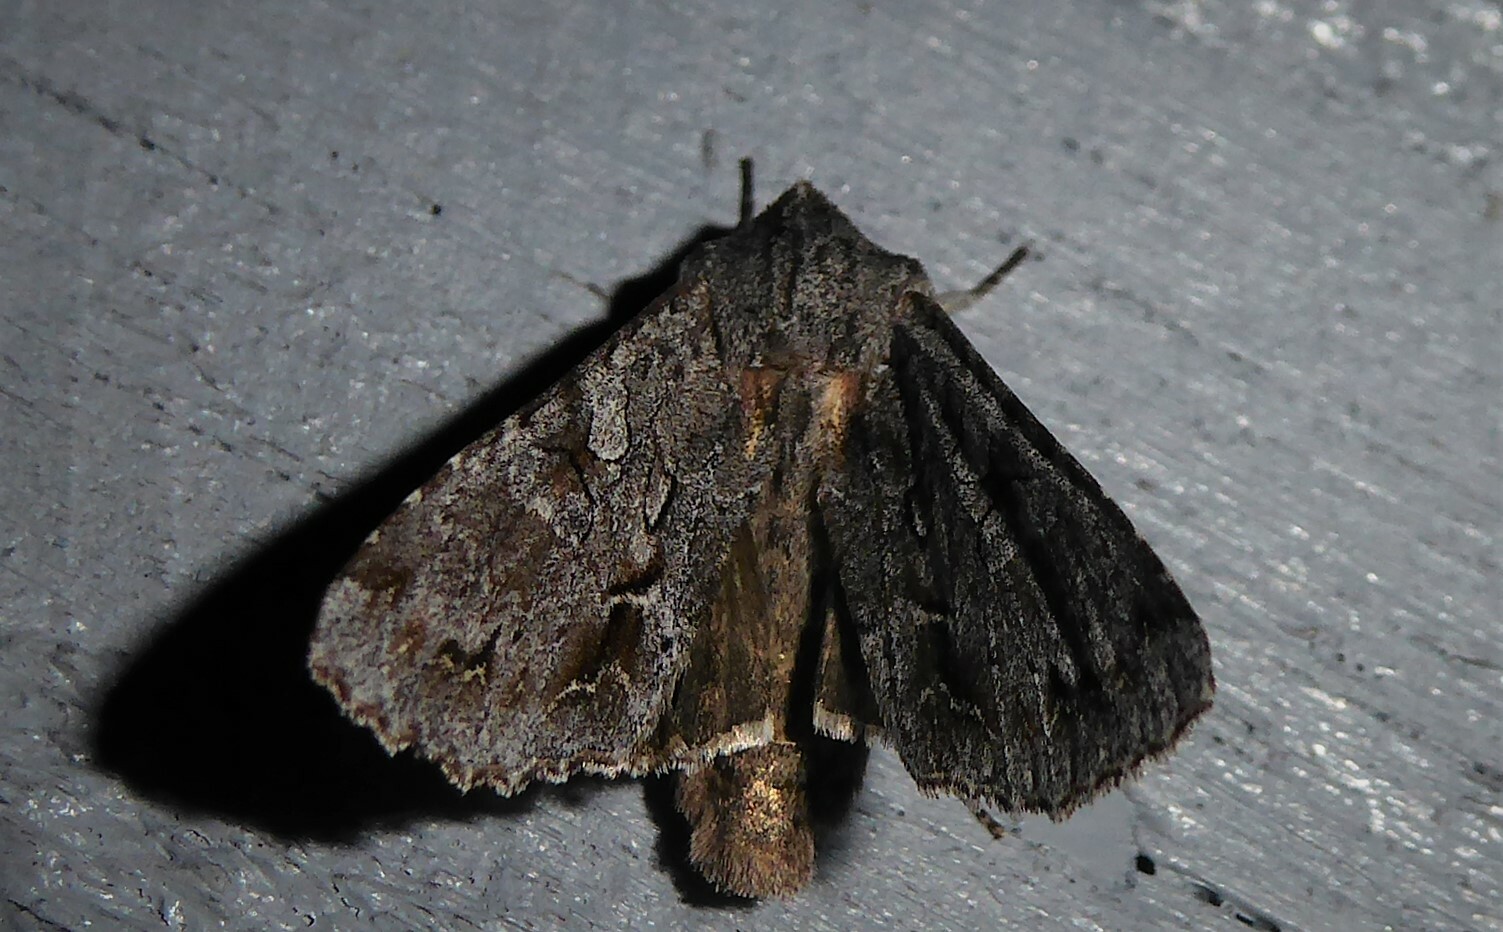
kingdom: Animalia
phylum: Arthropoda
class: Insecta
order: Lepidoptera
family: Noctuidae
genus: Ichneutica
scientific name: Ichneutica
